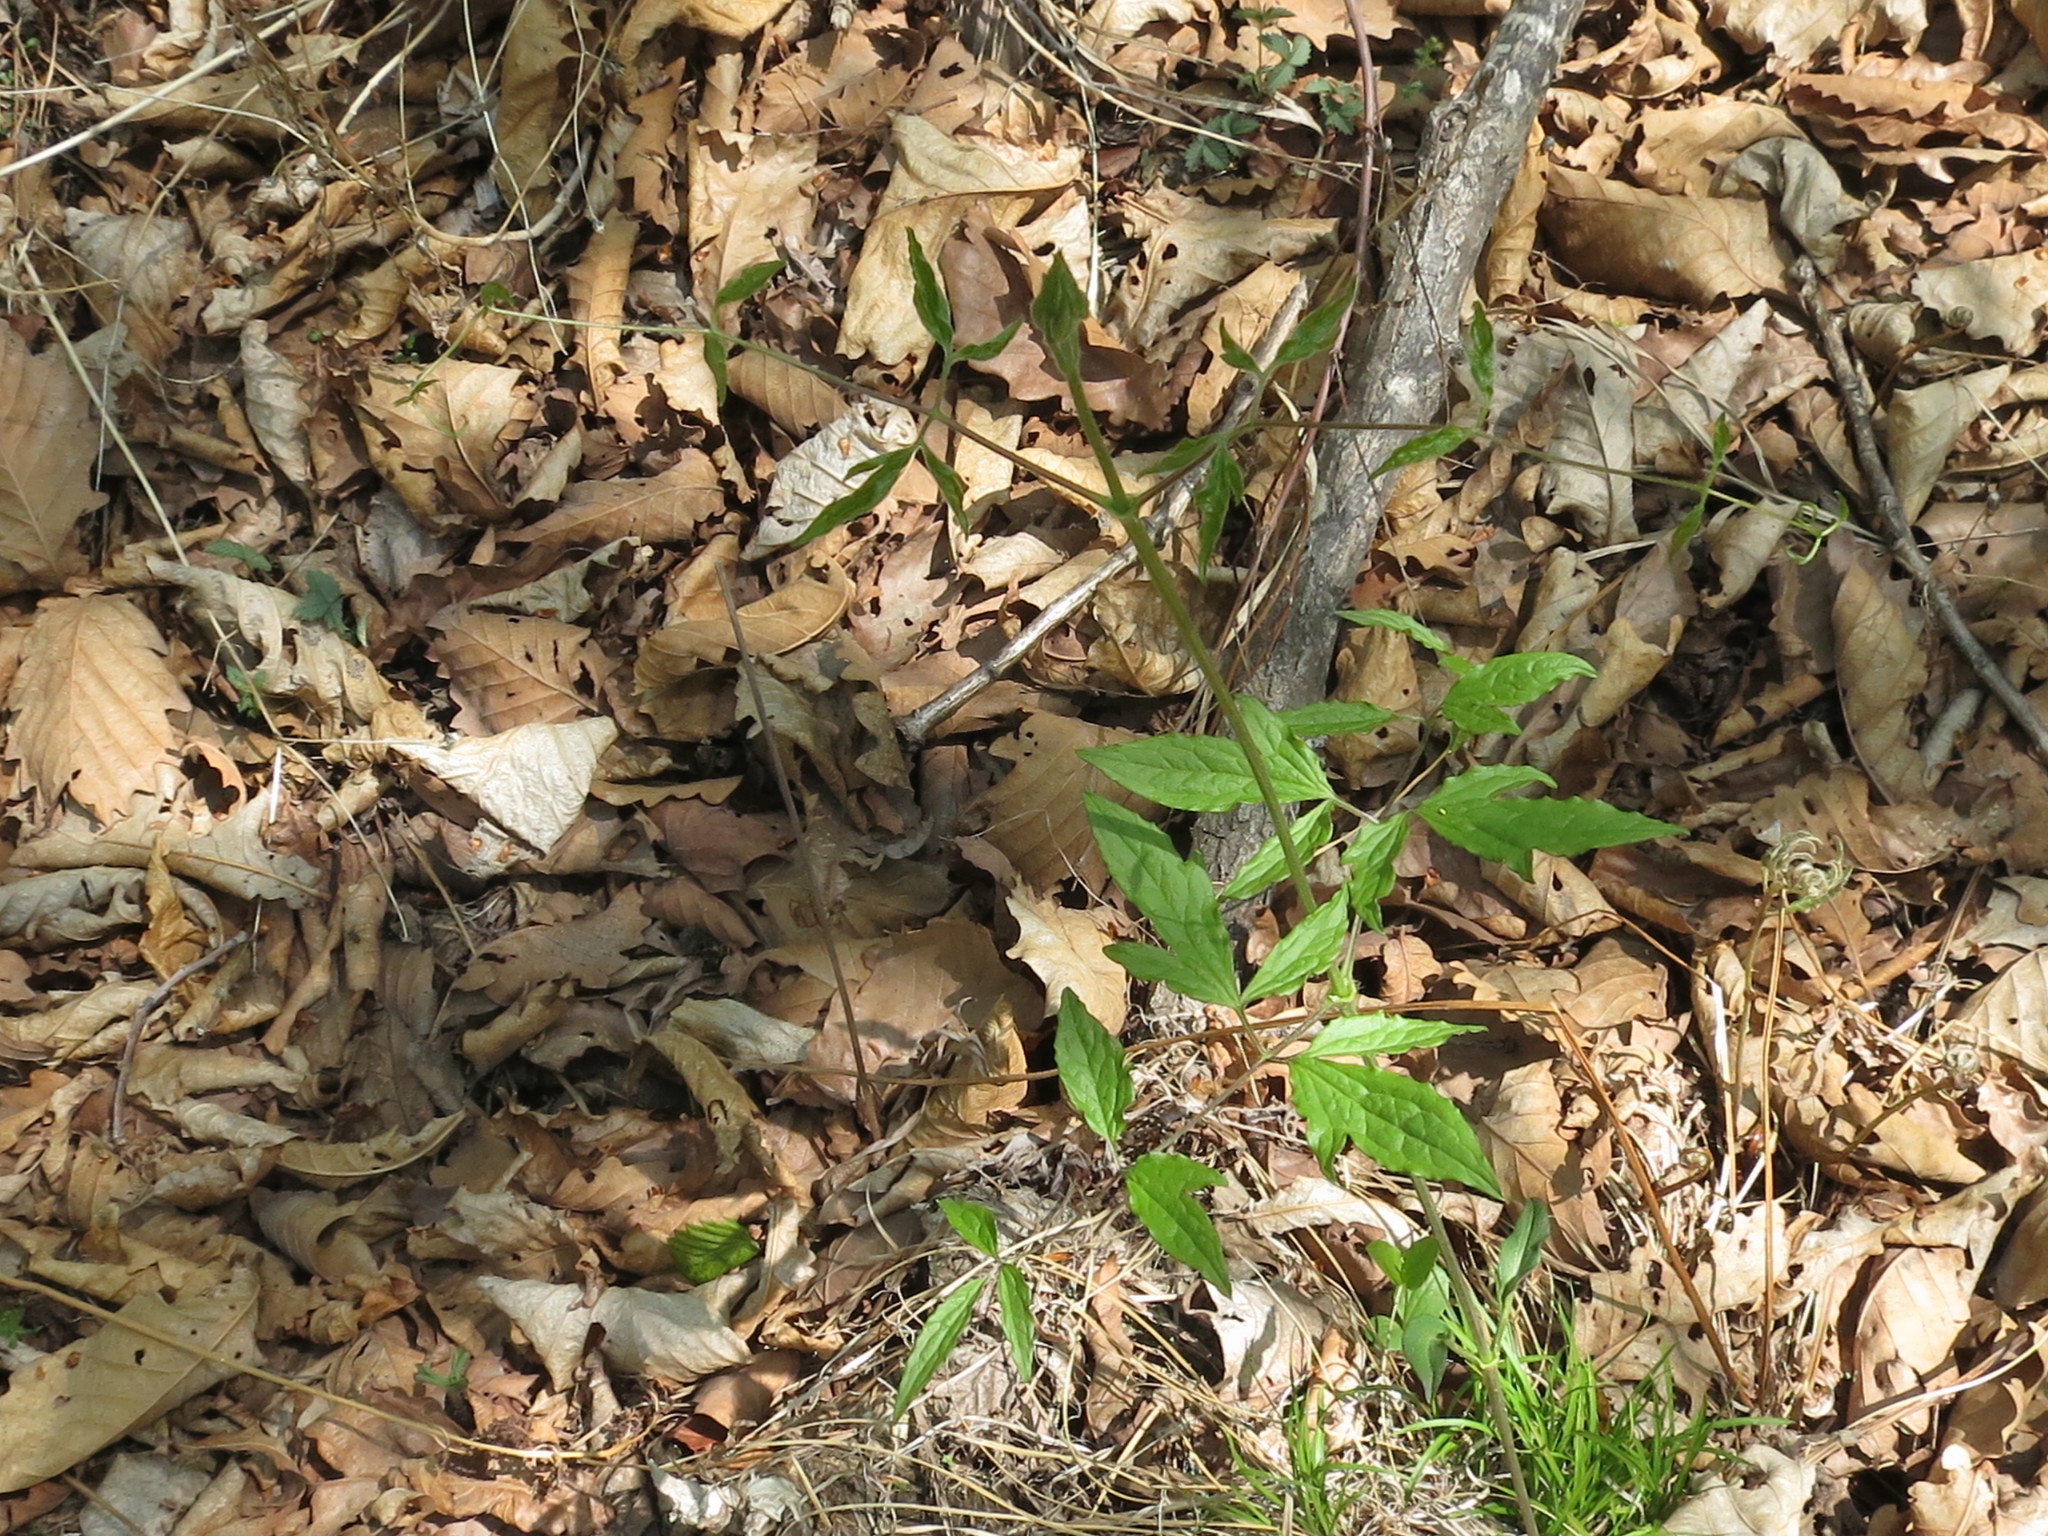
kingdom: Plantae
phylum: Tracheophyta
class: Magnoliopsida
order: Ranunculales
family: Ranunculaceae
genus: Clematis
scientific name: Clematis fusca
